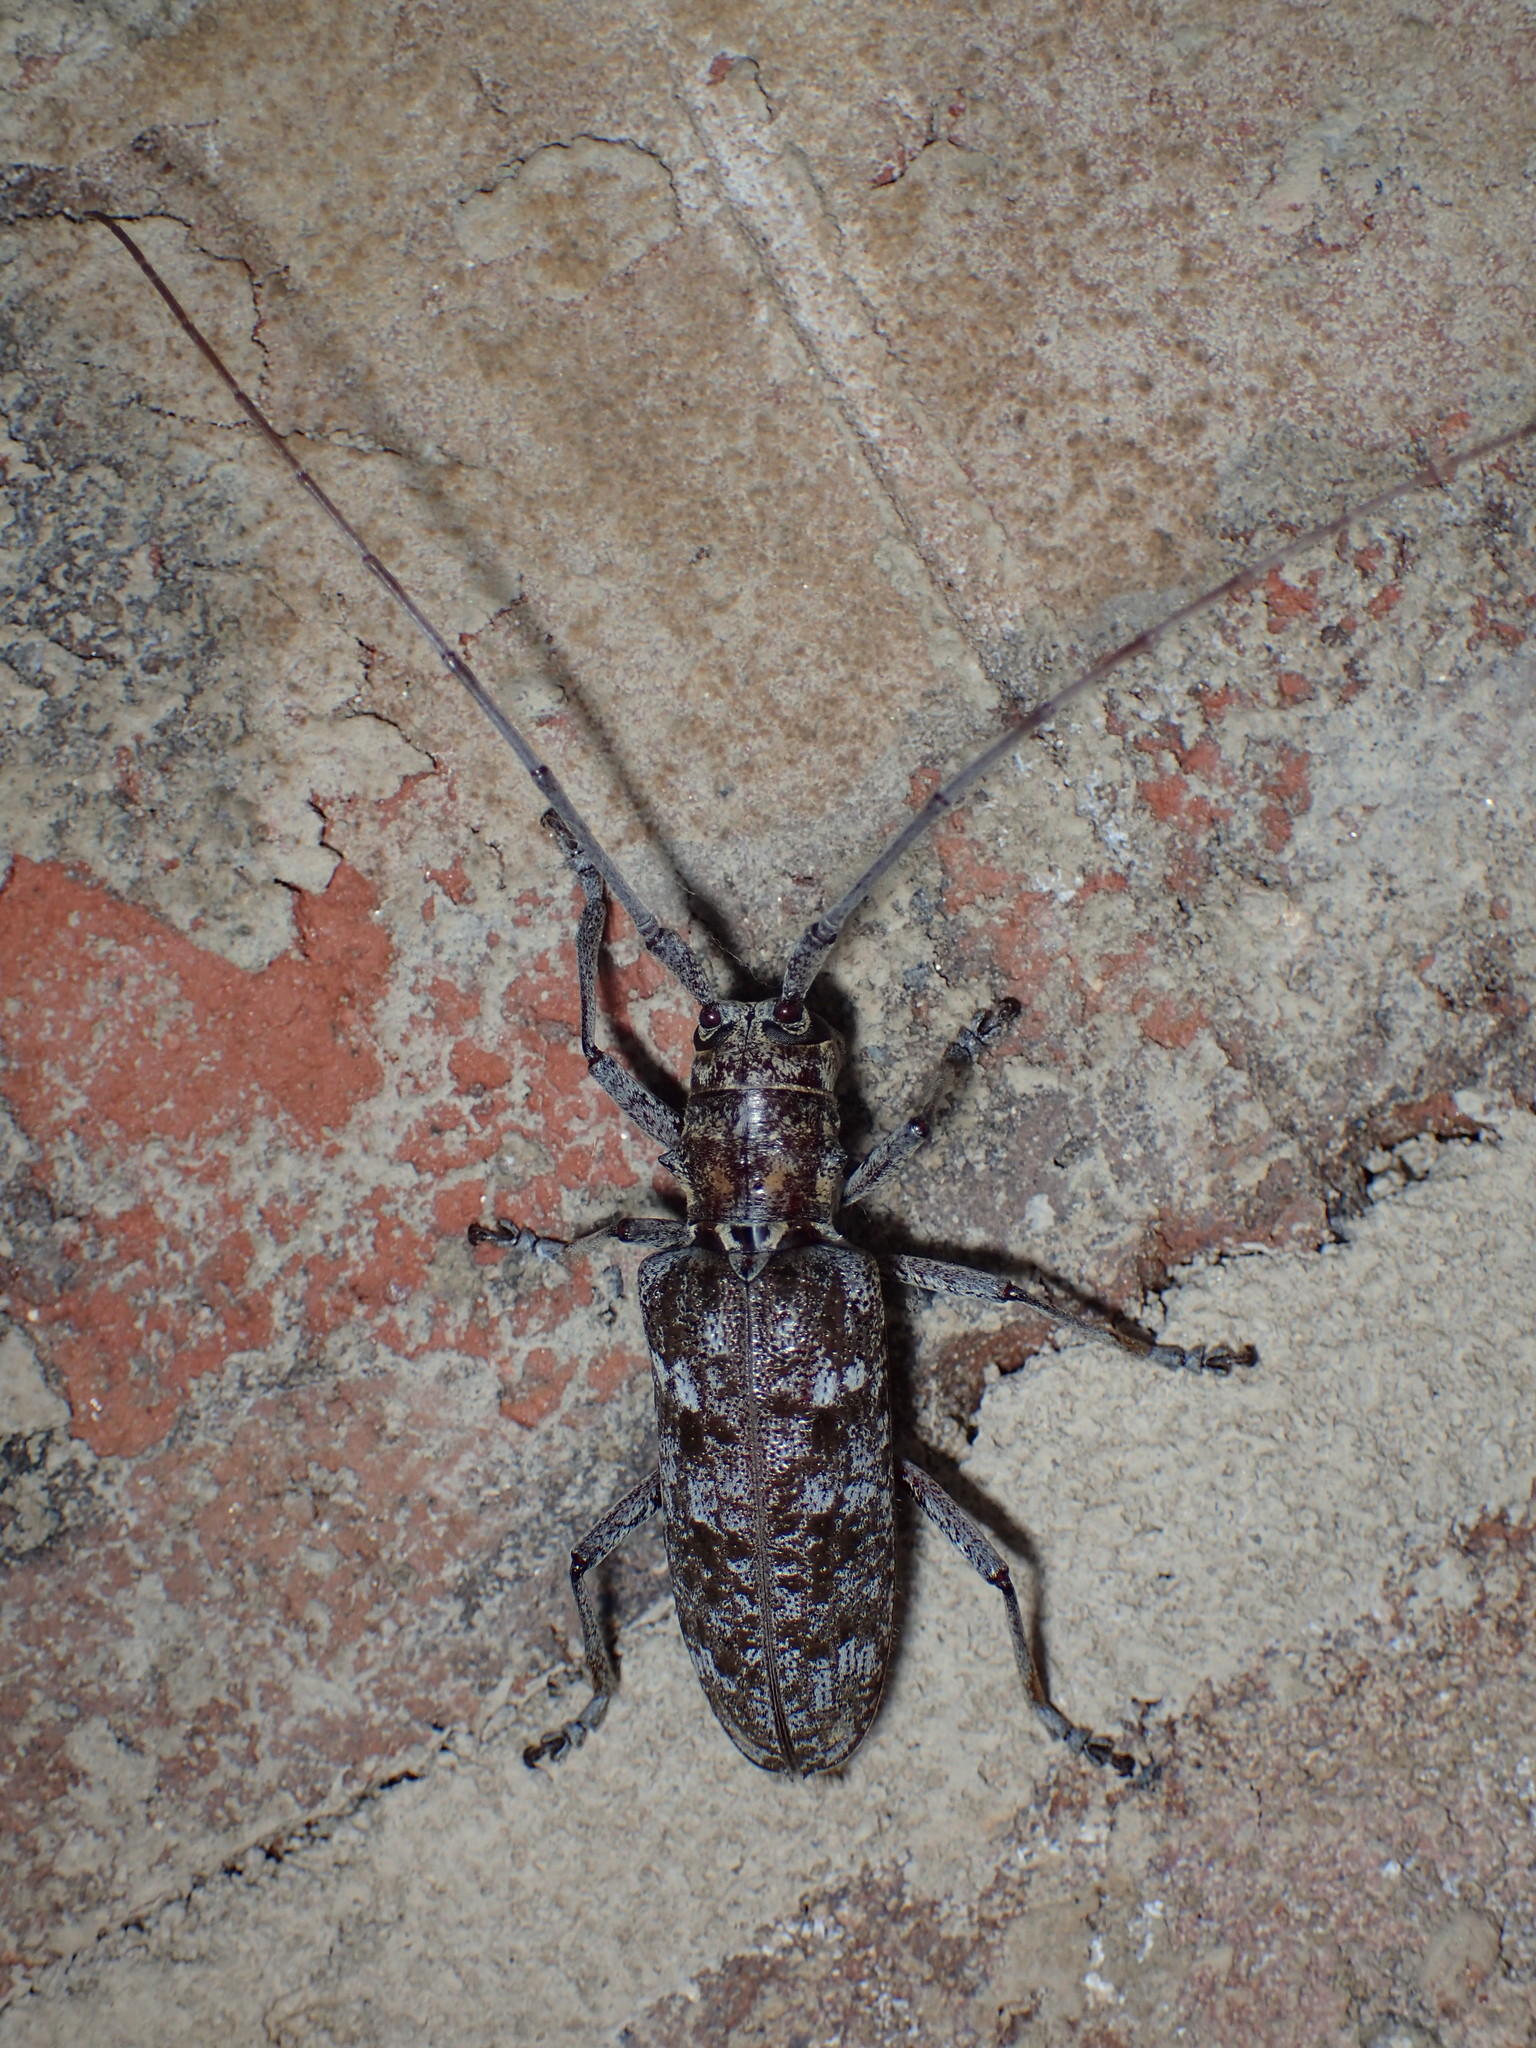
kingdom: Animalia
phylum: Arthropoda
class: Insecta
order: Coleoptera
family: Cerambycidae
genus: Monochamus
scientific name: Monochamus titillator
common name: Southern pine sawyer
